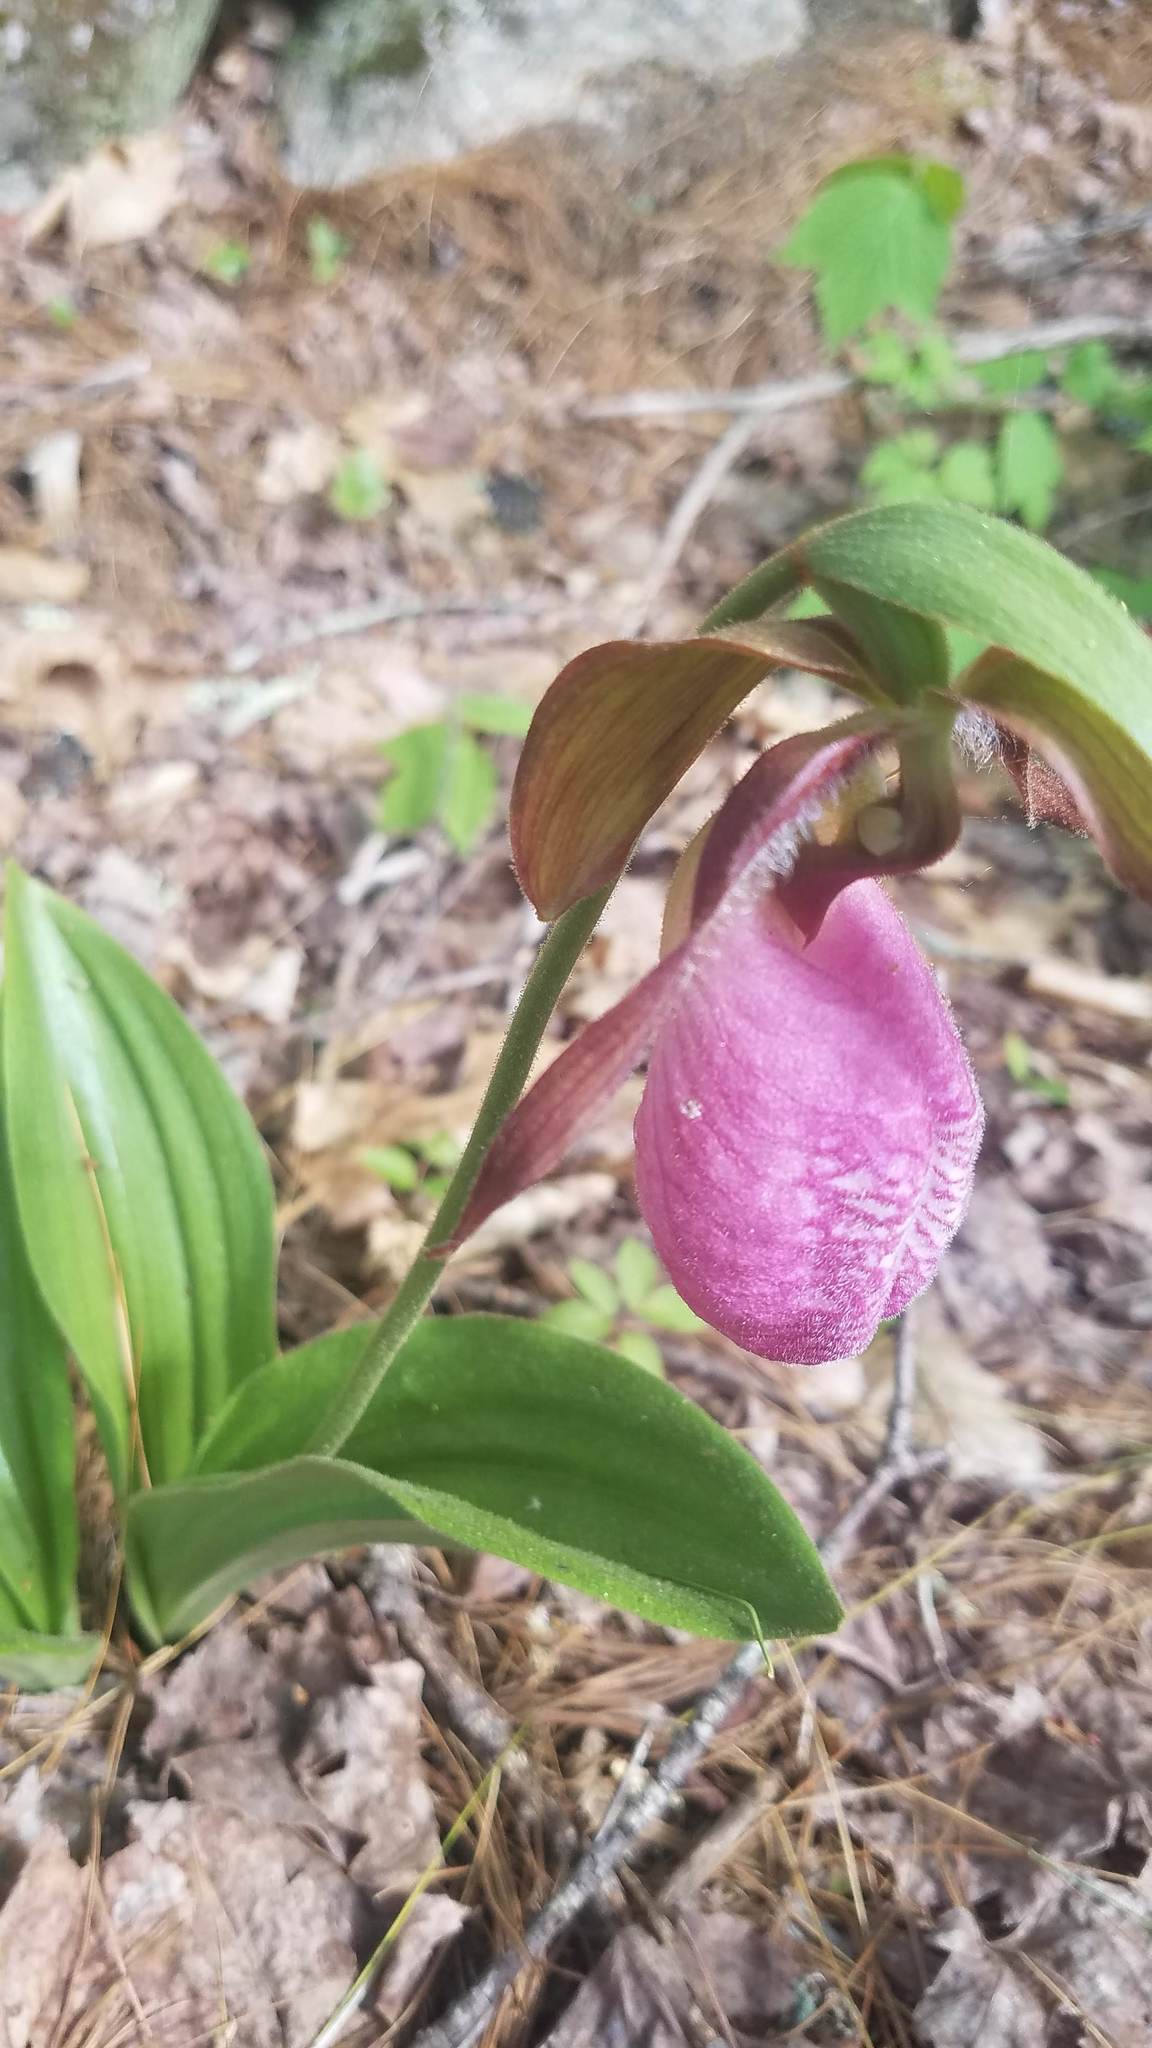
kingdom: Plantae
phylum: Tracheophyta
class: Liliopsida
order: Asparagales
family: Orchidaceae
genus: Cypripedium
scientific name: Cypripedium acaule
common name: Pink lady's-slipper
